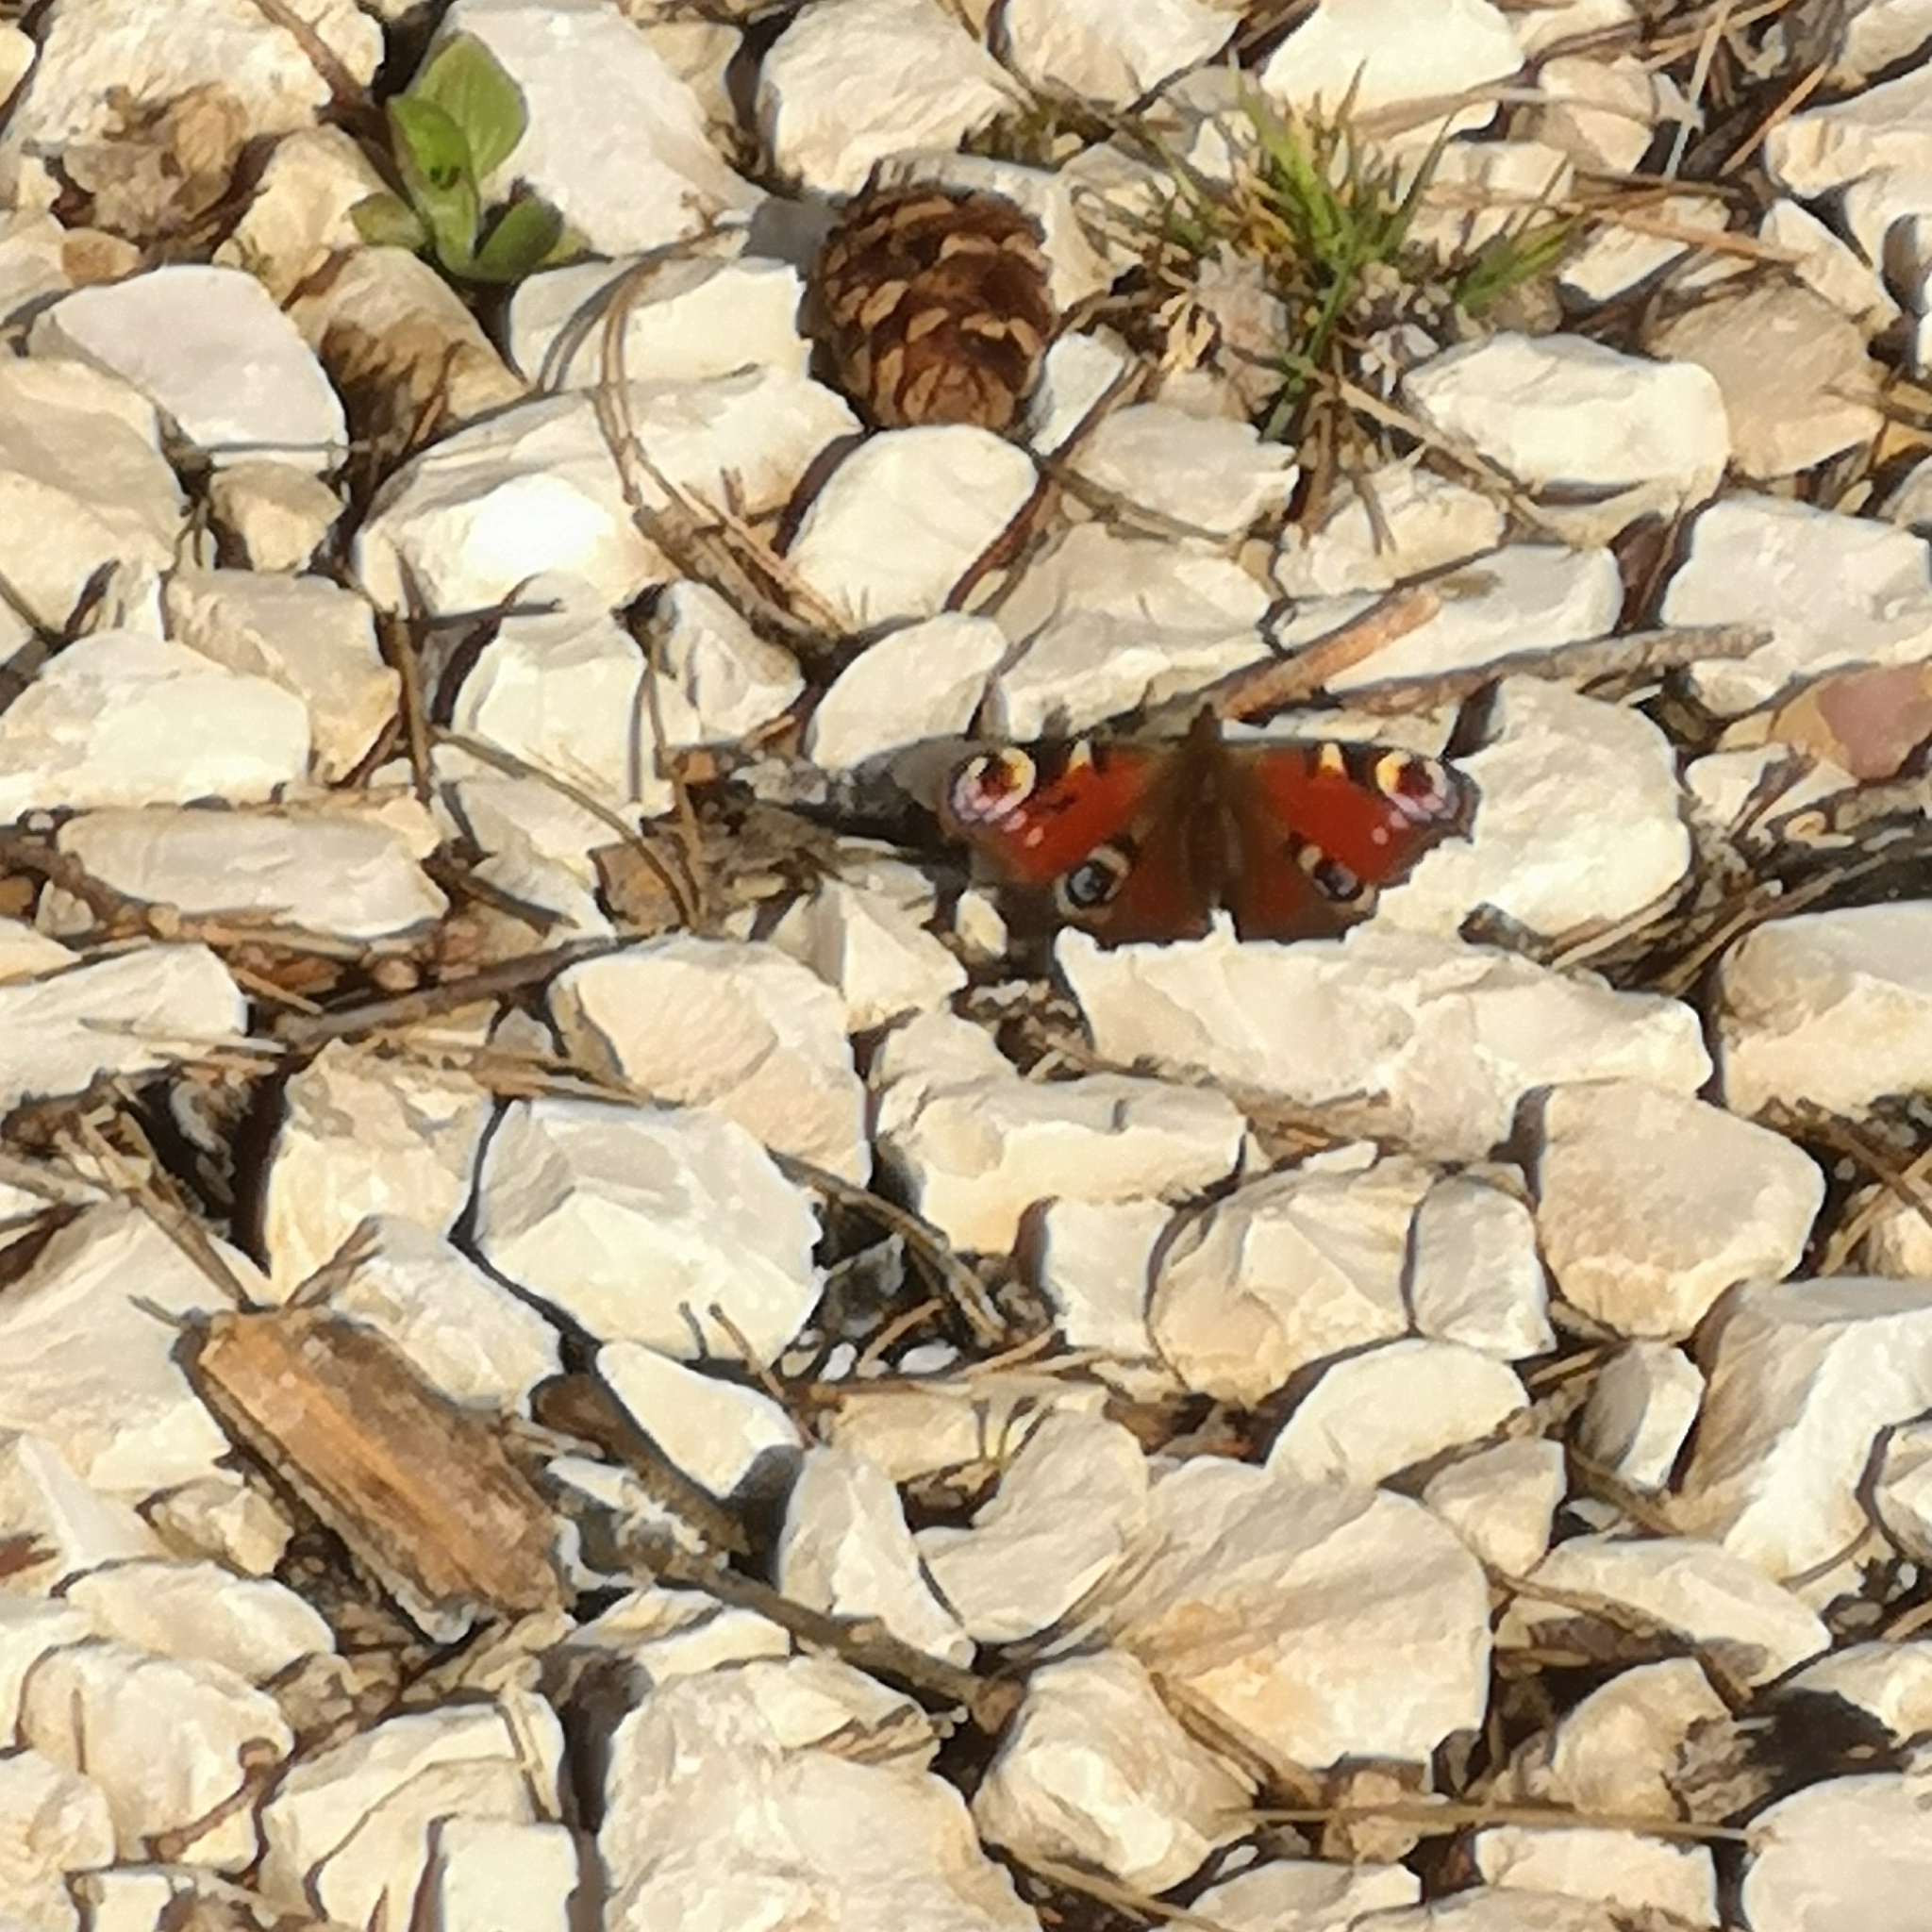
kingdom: Animalia
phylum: Arthropoda
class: Insecta
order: Lepidoptera
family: Nymphalidae
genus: Aglais
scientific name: Aglais io
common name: Peacock
